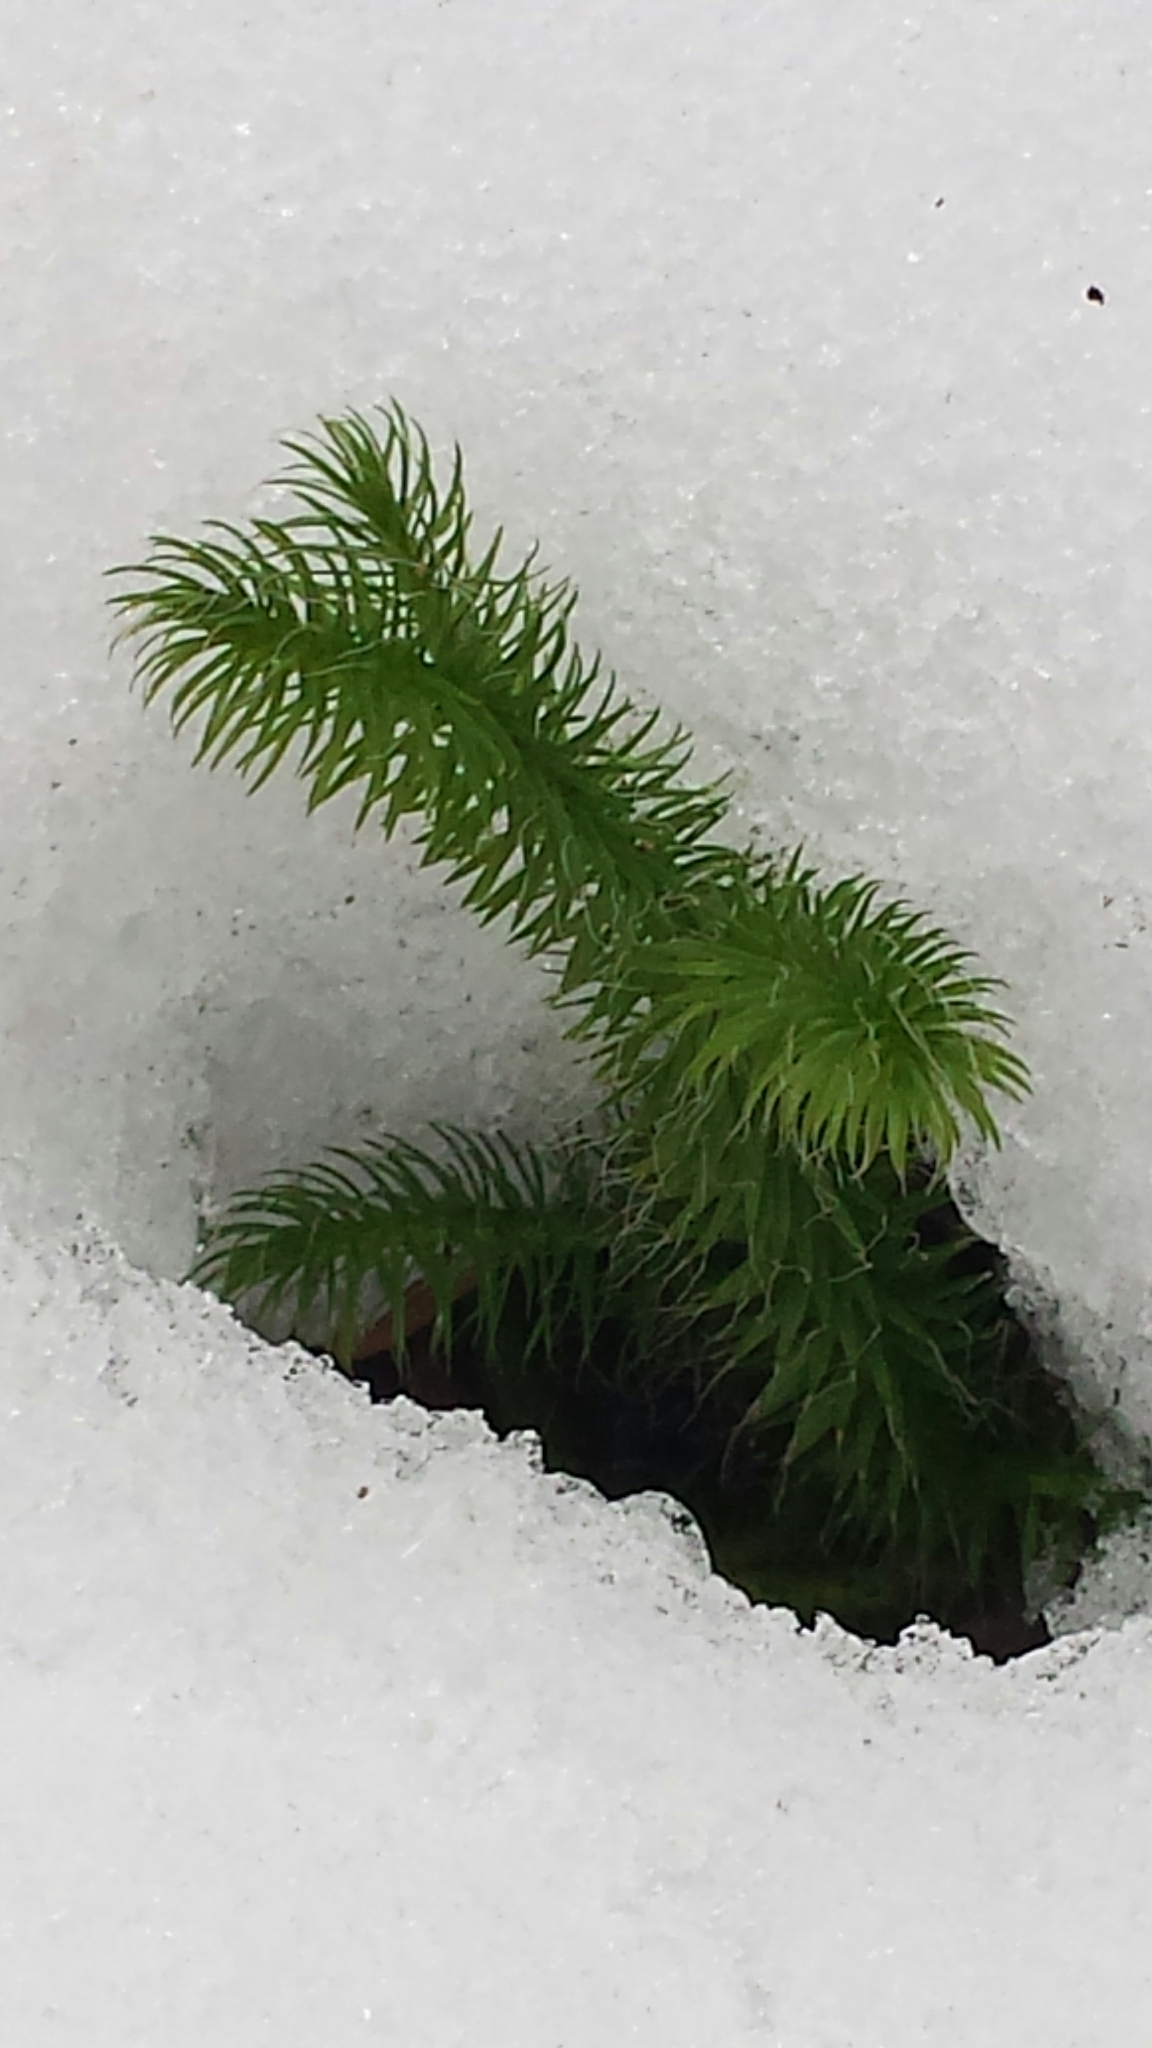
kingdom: Plantae
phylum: Tracheophyta
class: Lycopodiopsida
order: Lycopodiales
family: Lycopodiaceae
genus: Lycopodium
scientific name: Lycopodium clavatum
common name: Stag's-horn clubmoss
